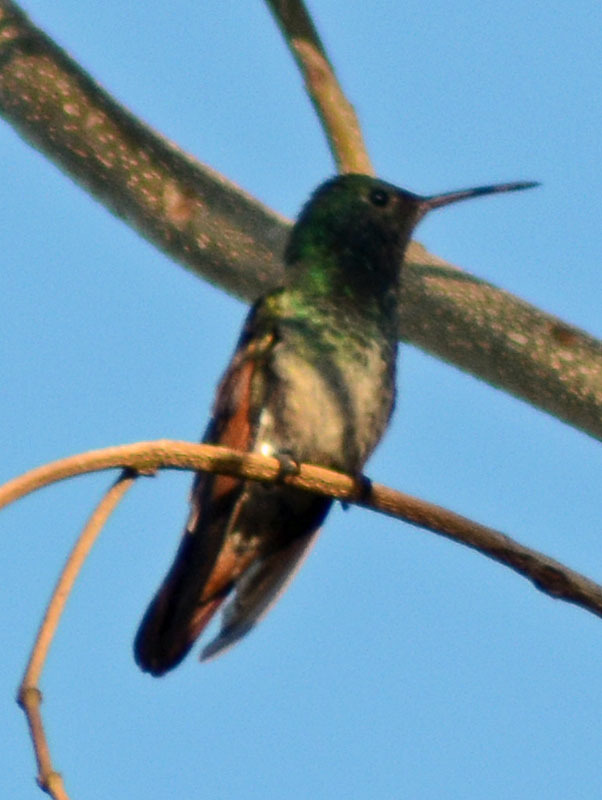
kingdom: Animalia
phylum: Chordata
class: Aves
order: Apodiformes
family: Trochilidae
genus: Saucerottia
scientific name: Saucerottia beryllina
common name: Berylline hummingbird
